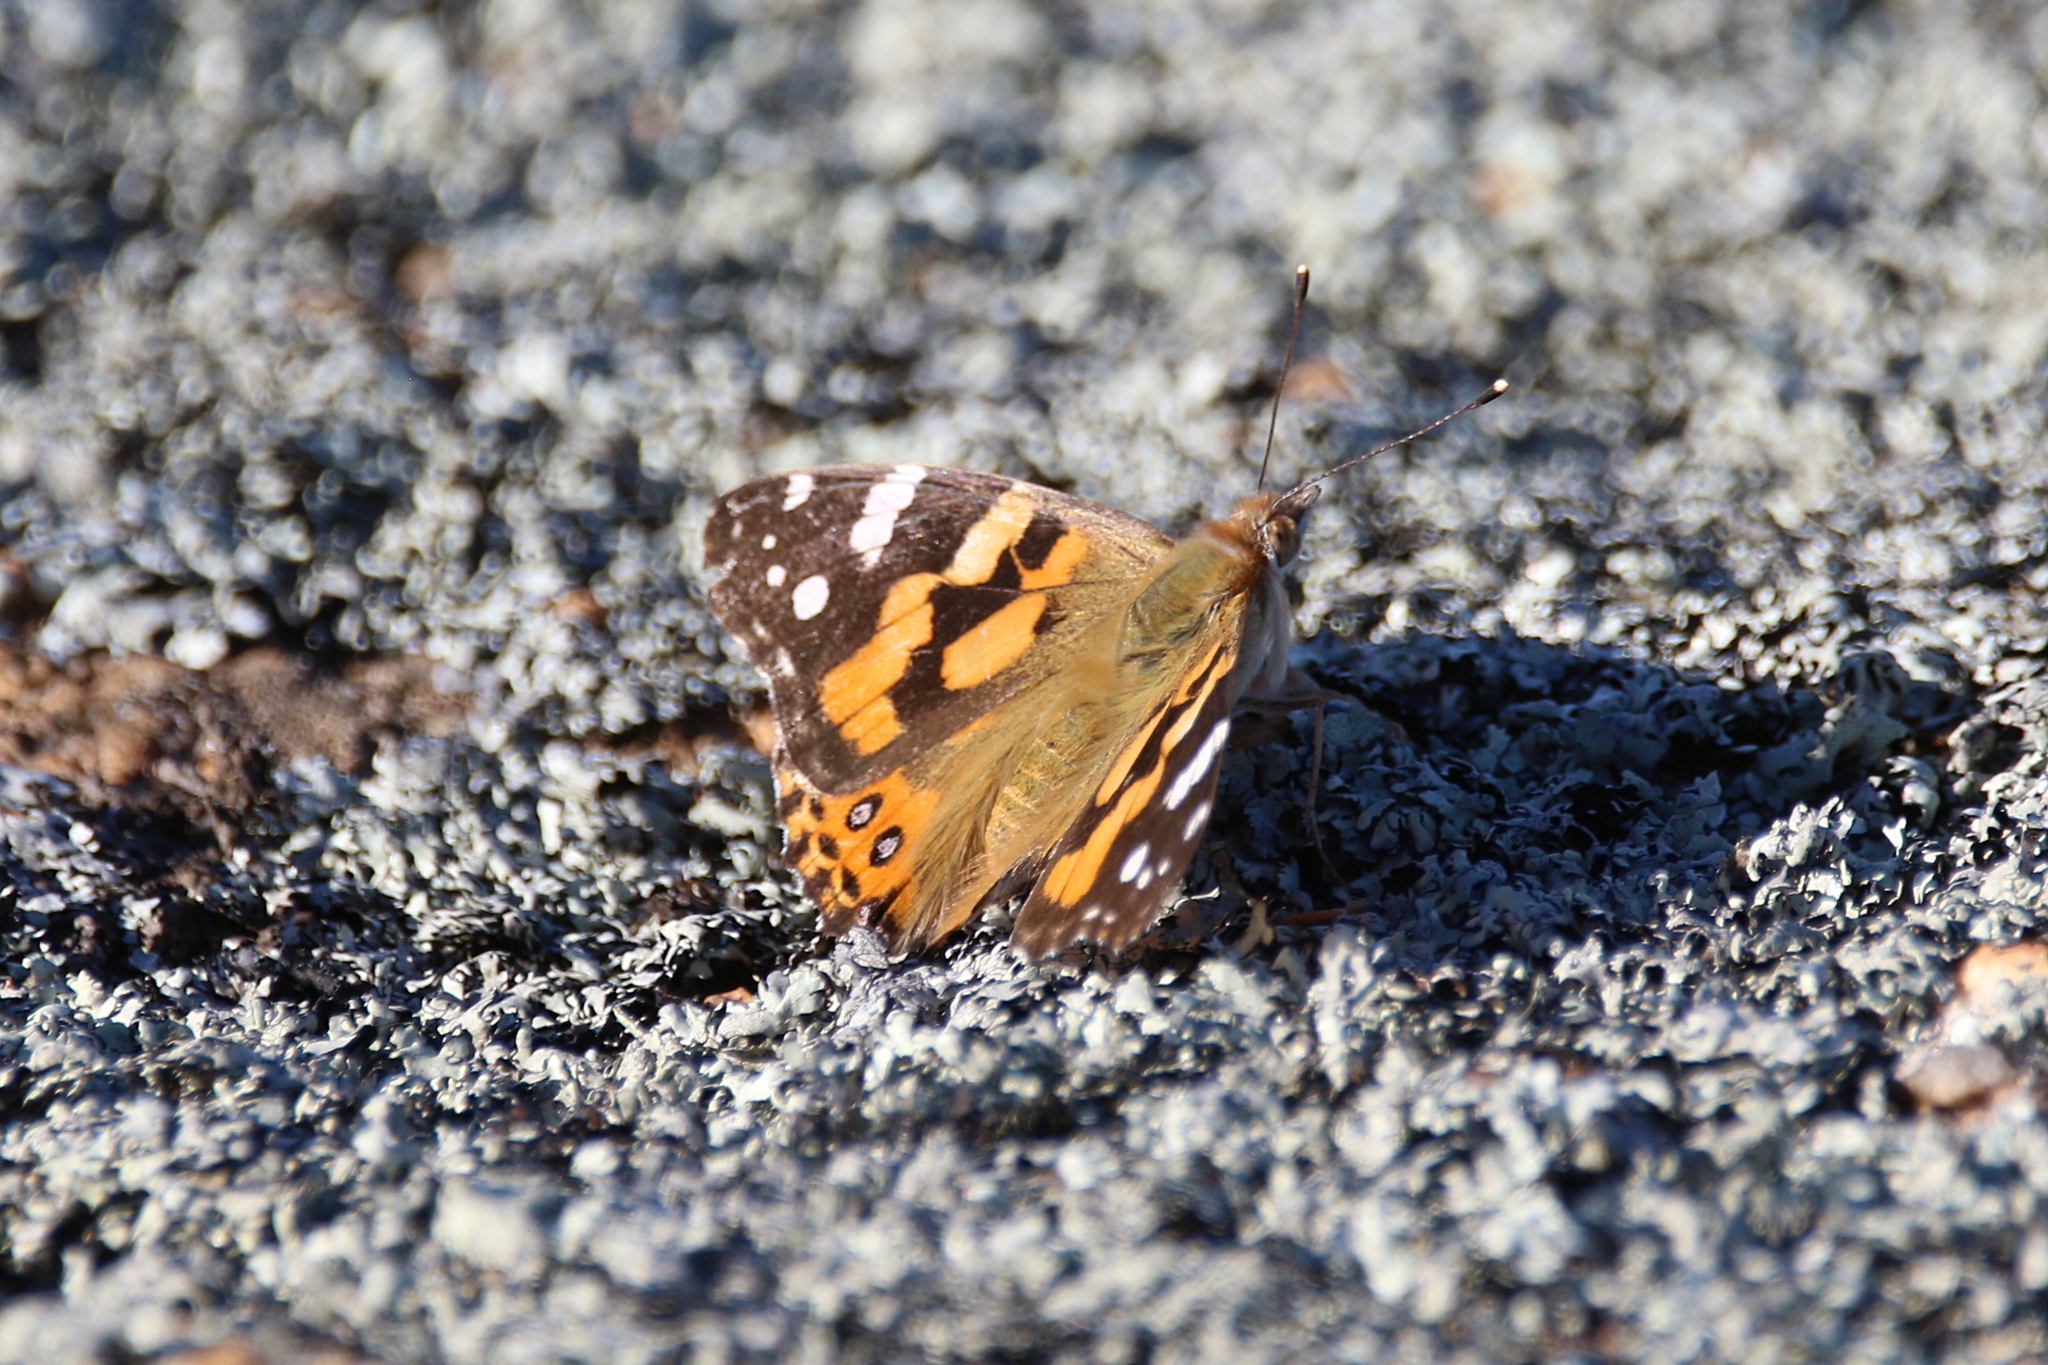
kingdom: Animalia
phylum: Arthropoda
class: Insecta
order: Lepidoptera
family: Nymphalidae
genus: Vanessa
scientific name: Vanessa kershawi
